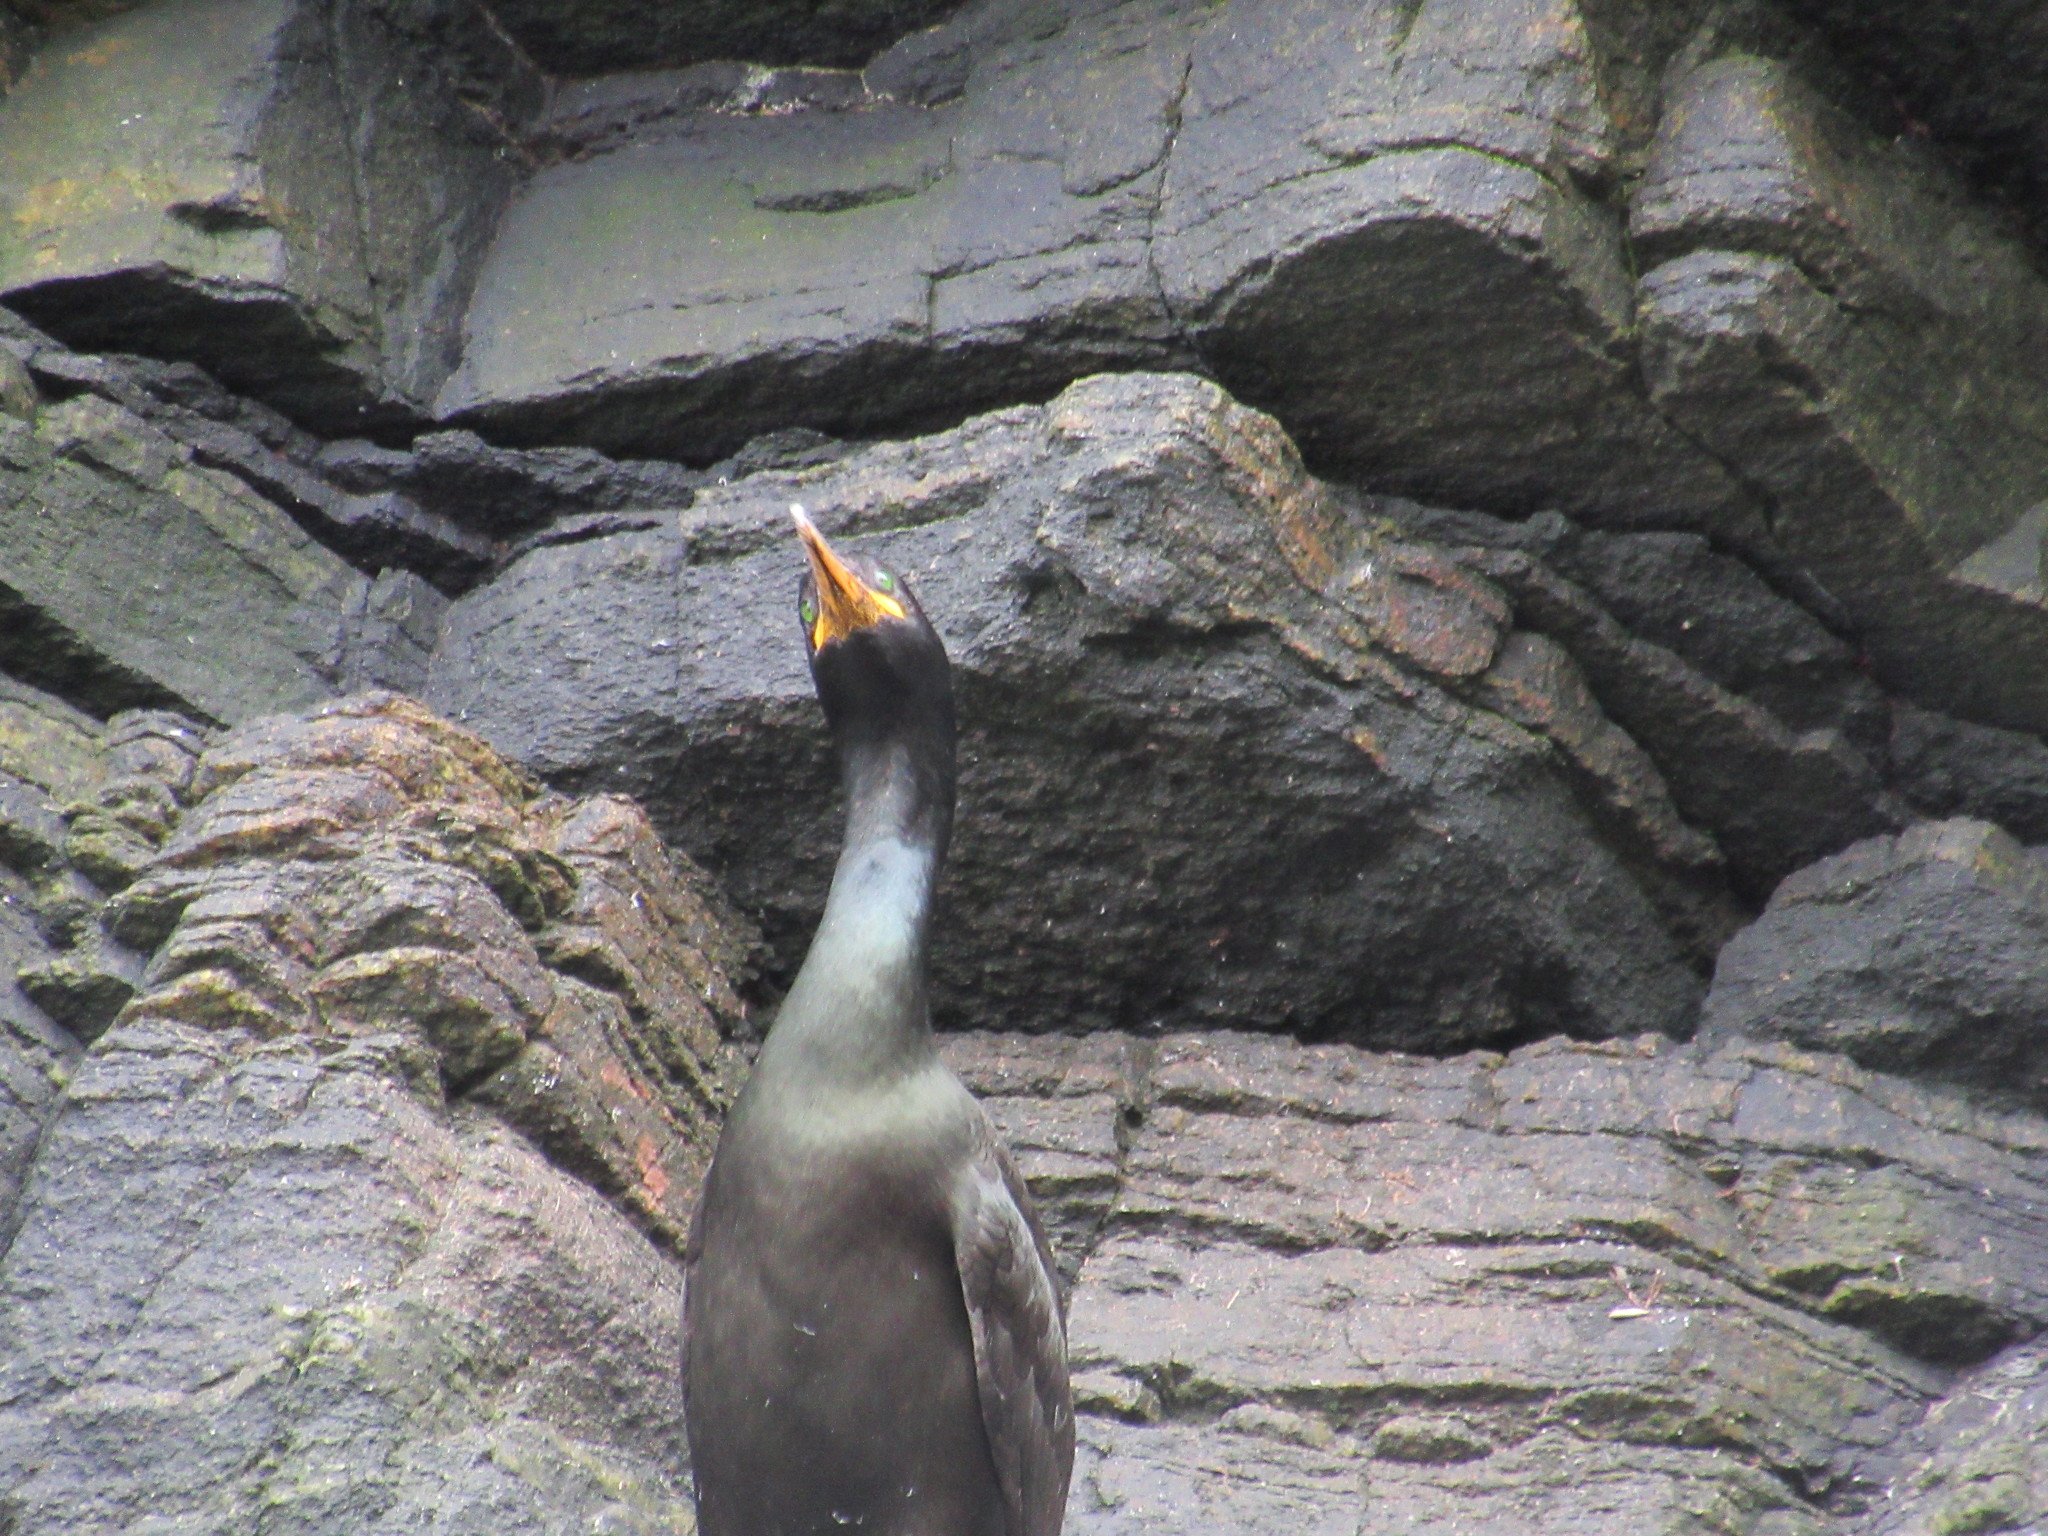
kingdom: Animalia
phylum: Chordata
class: Aves
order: Suliformes
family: Phalacrocoracidae
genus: Phalacrocorax
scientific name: Phalacrocorax aristotelis
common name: European shag
